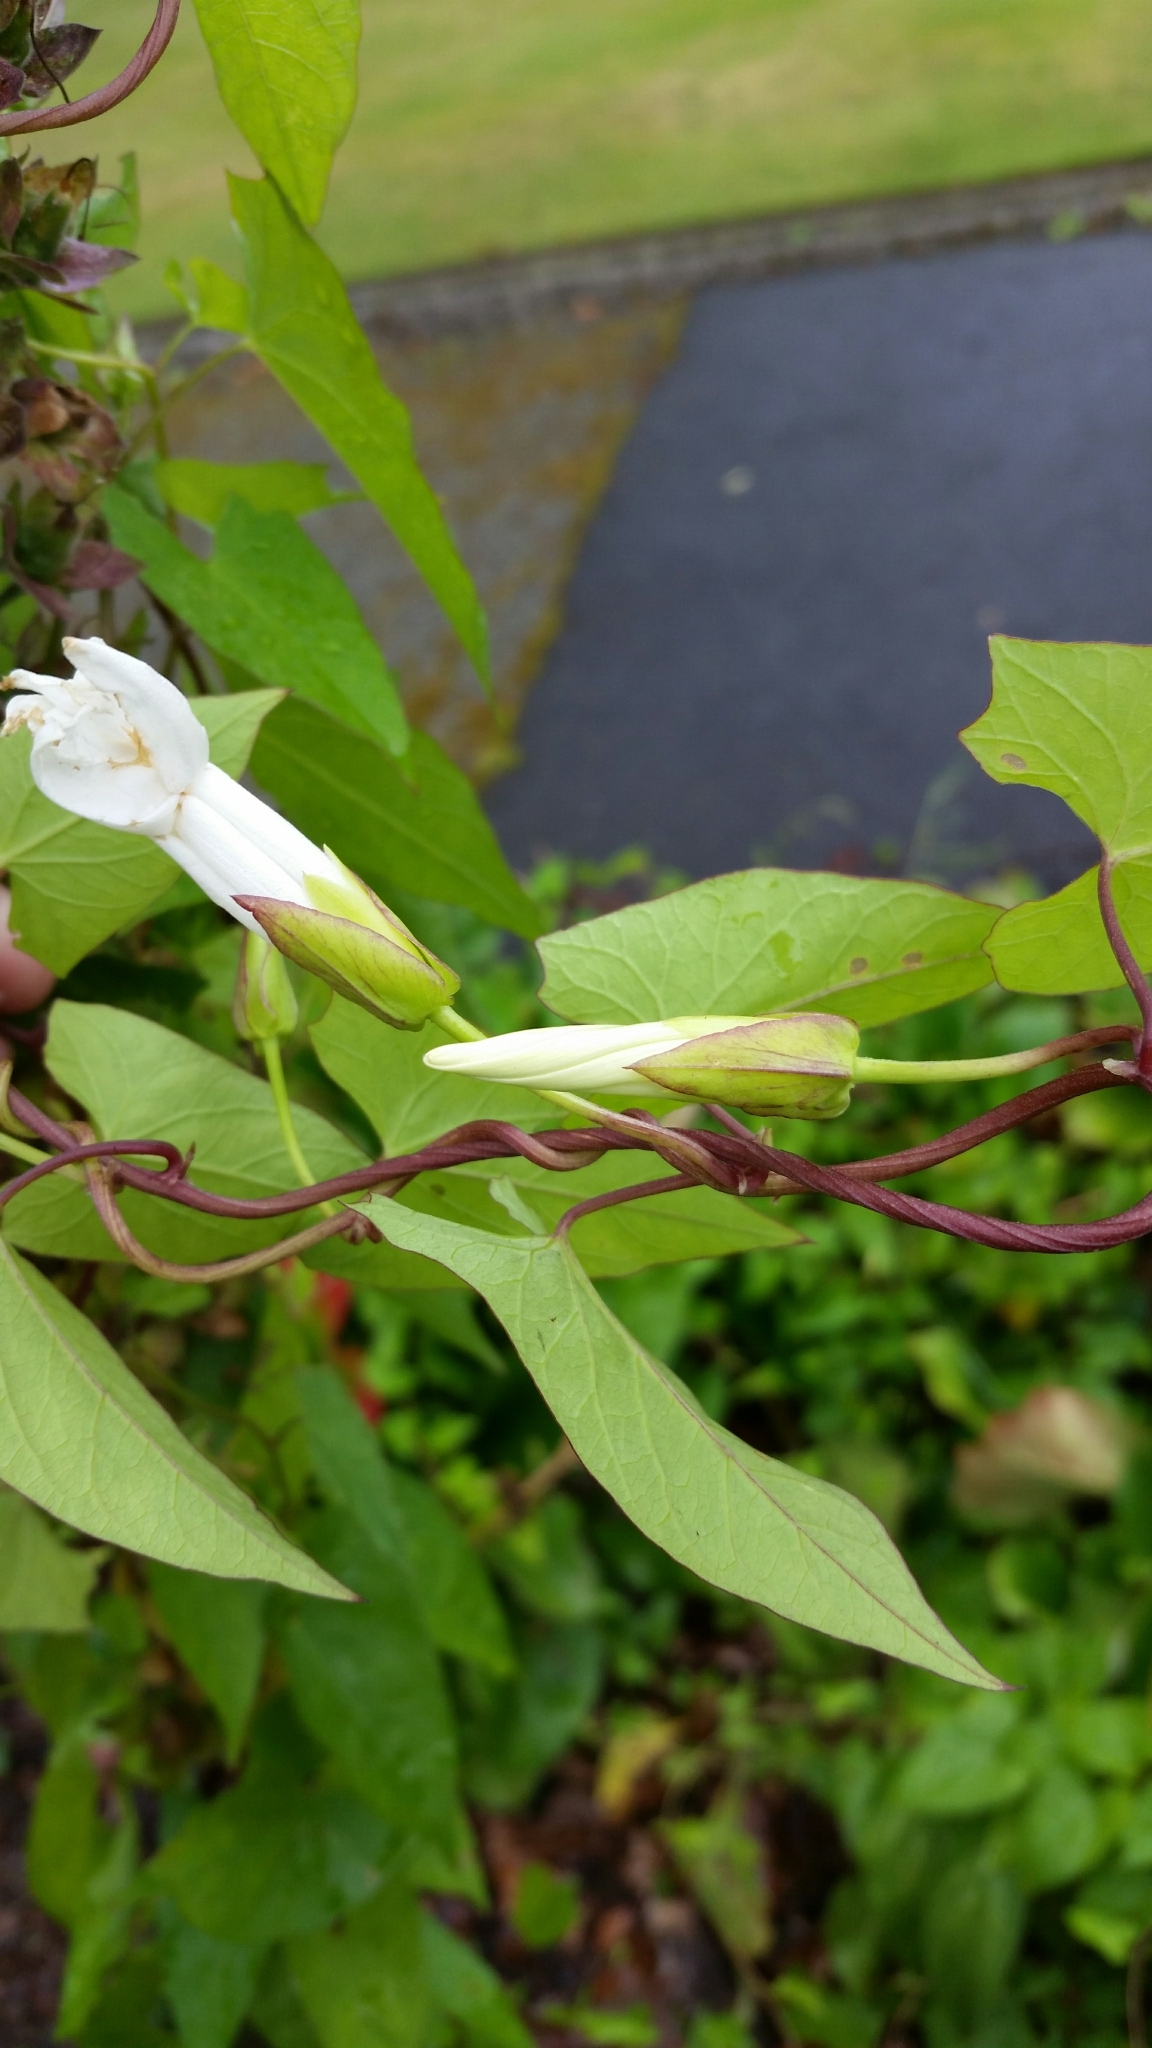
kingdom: Plantae
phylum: Tracheophyta
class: Magnoliopsida
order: Solanales
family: Convolvulaceae
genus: Calystegia
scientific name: Calystegia sepium
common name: Hedge bindweed
